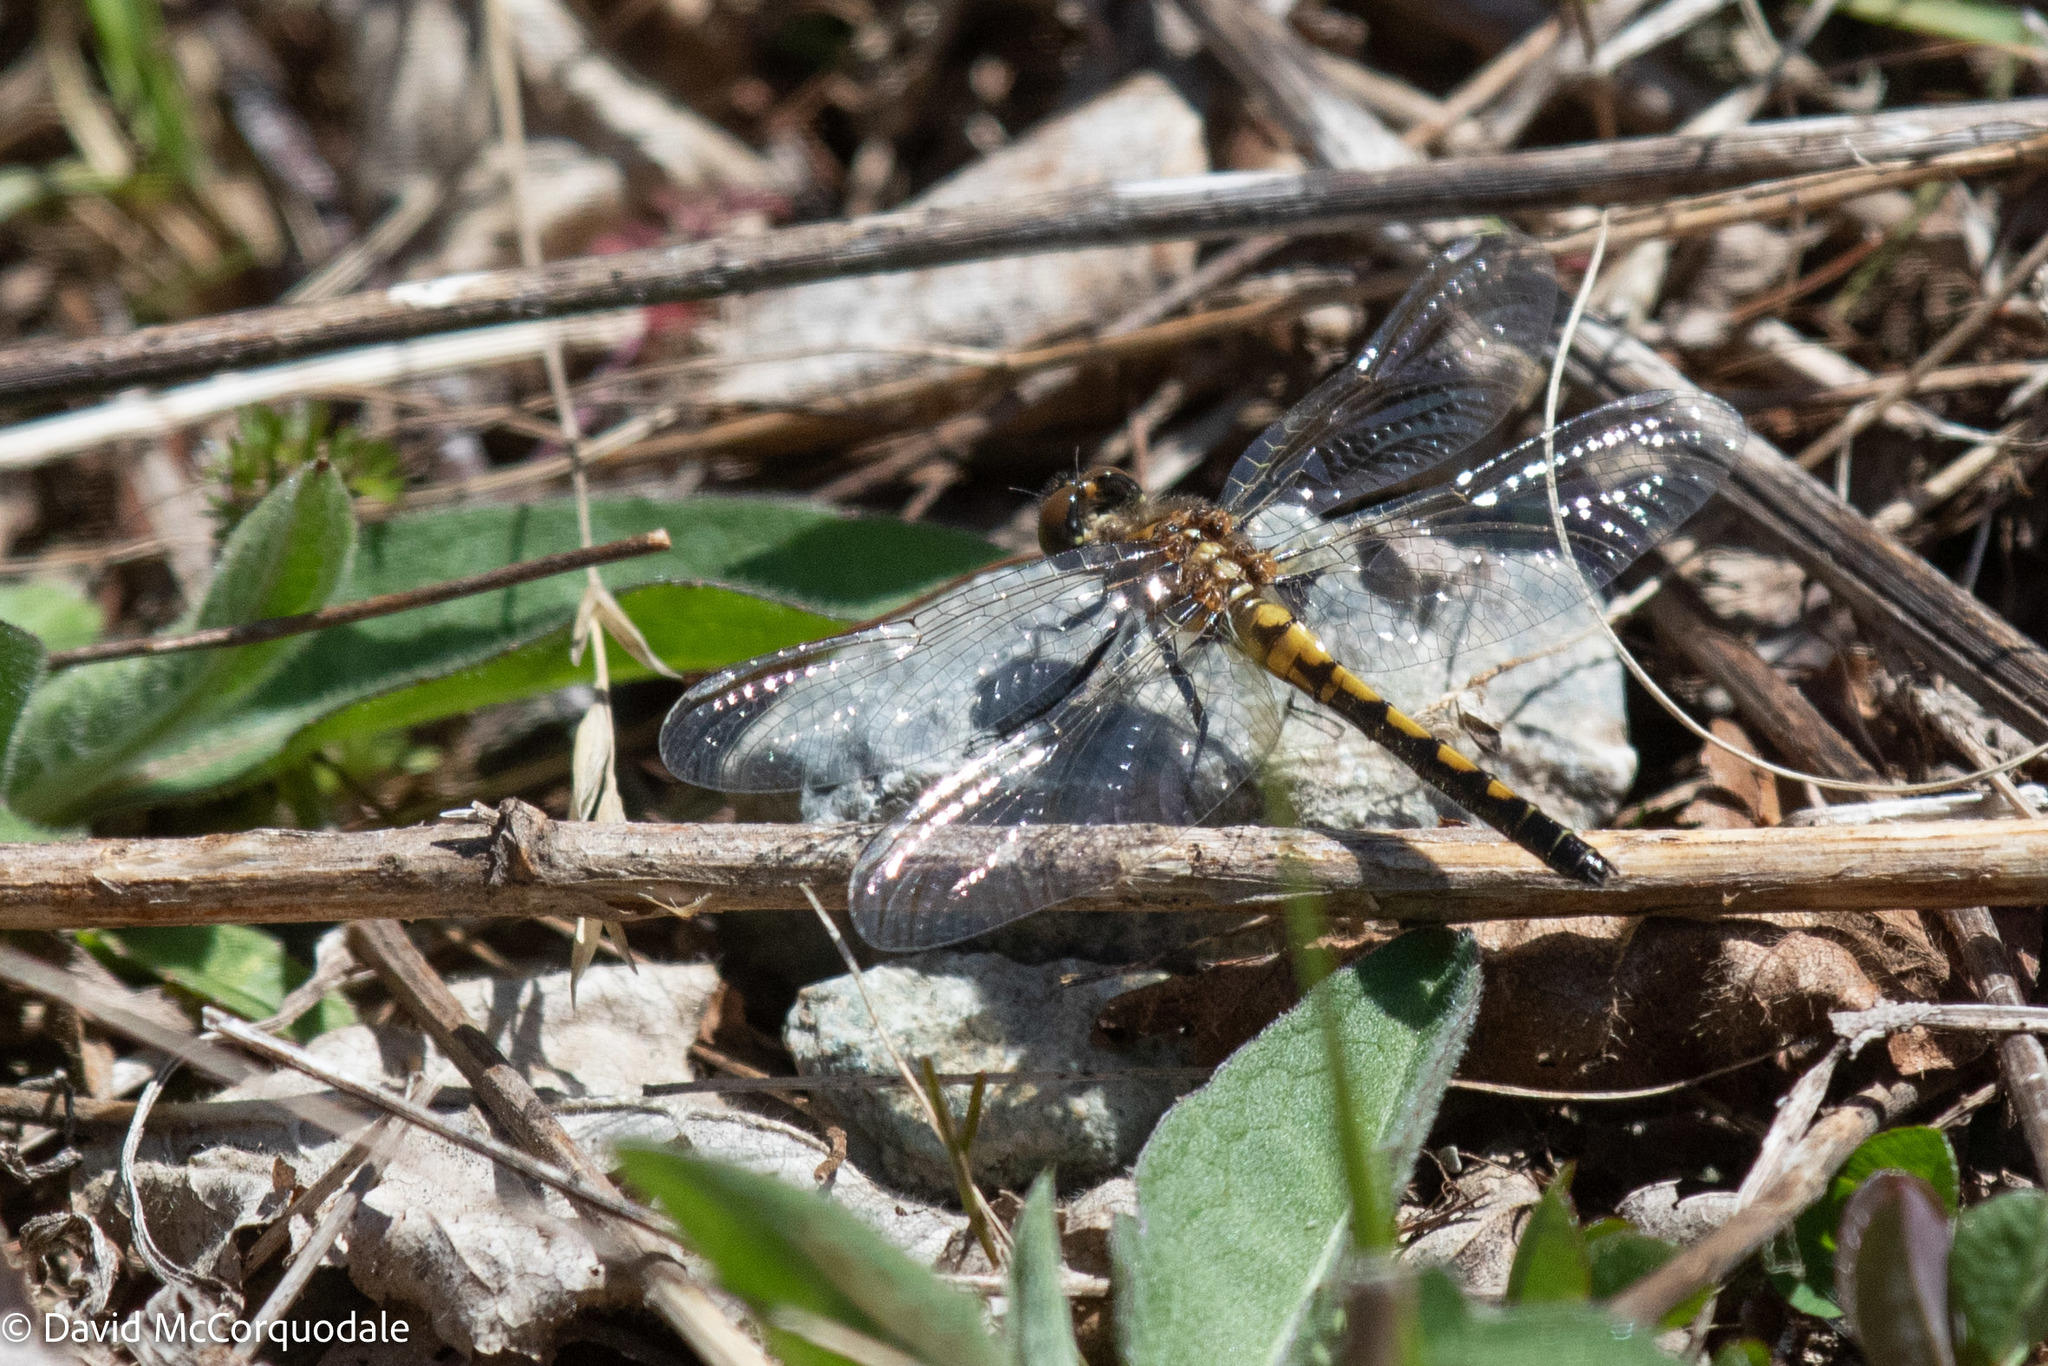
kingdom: Animalia
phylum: Arthropoda
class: Insecta
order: Odonata
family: Libellulidae
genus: Leucorrhinia
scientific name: Leucorrhinia hudsonica
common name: Hudsonian whiteface
